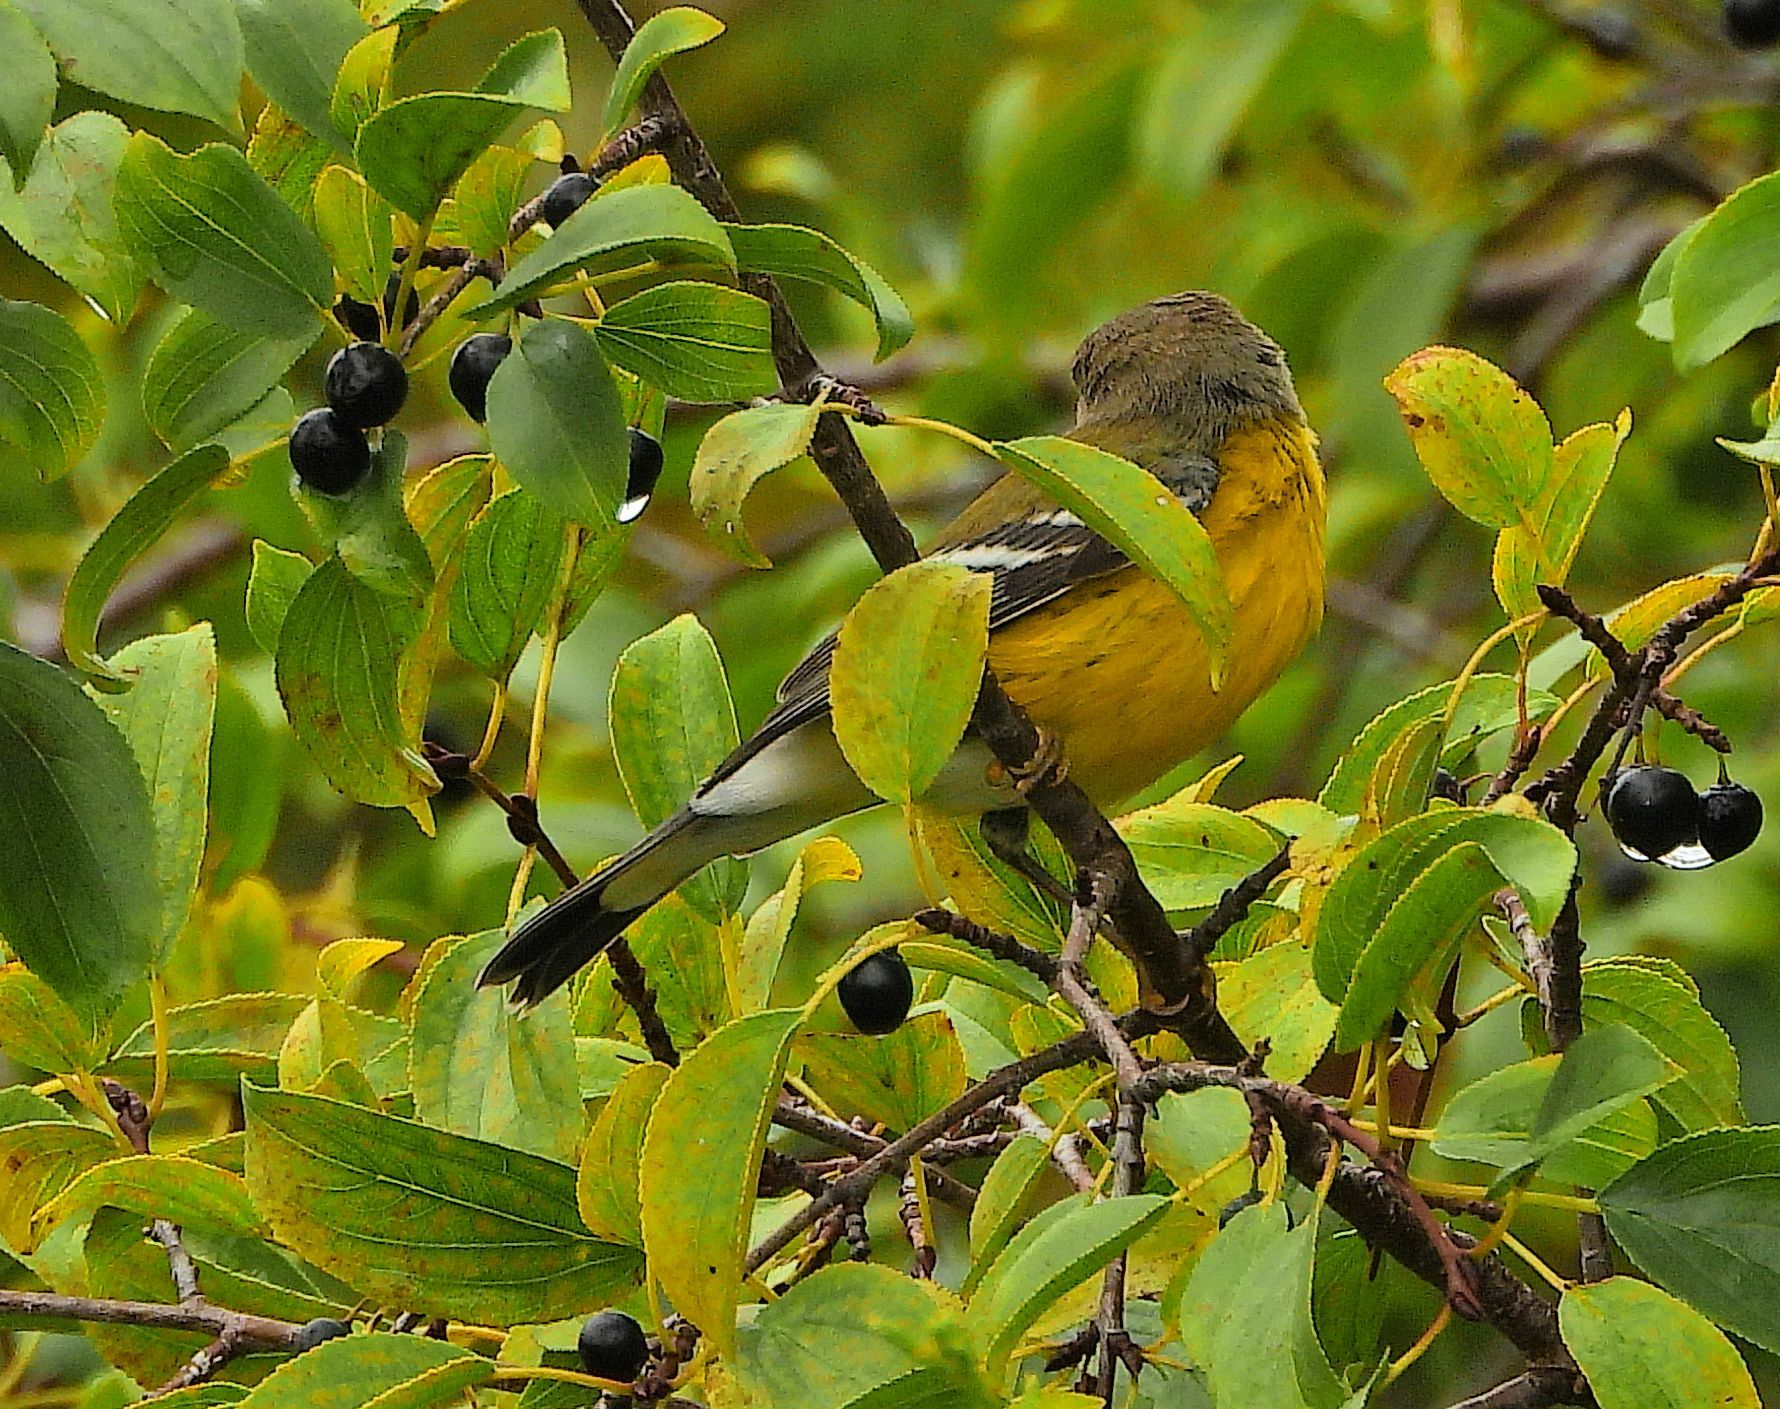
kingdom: Animalia
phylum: Chordata
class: Aves
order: Passeriformes
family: Parulidae
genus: Setophaga
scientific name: Setophaga magnolia
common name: Magnolia warbler
